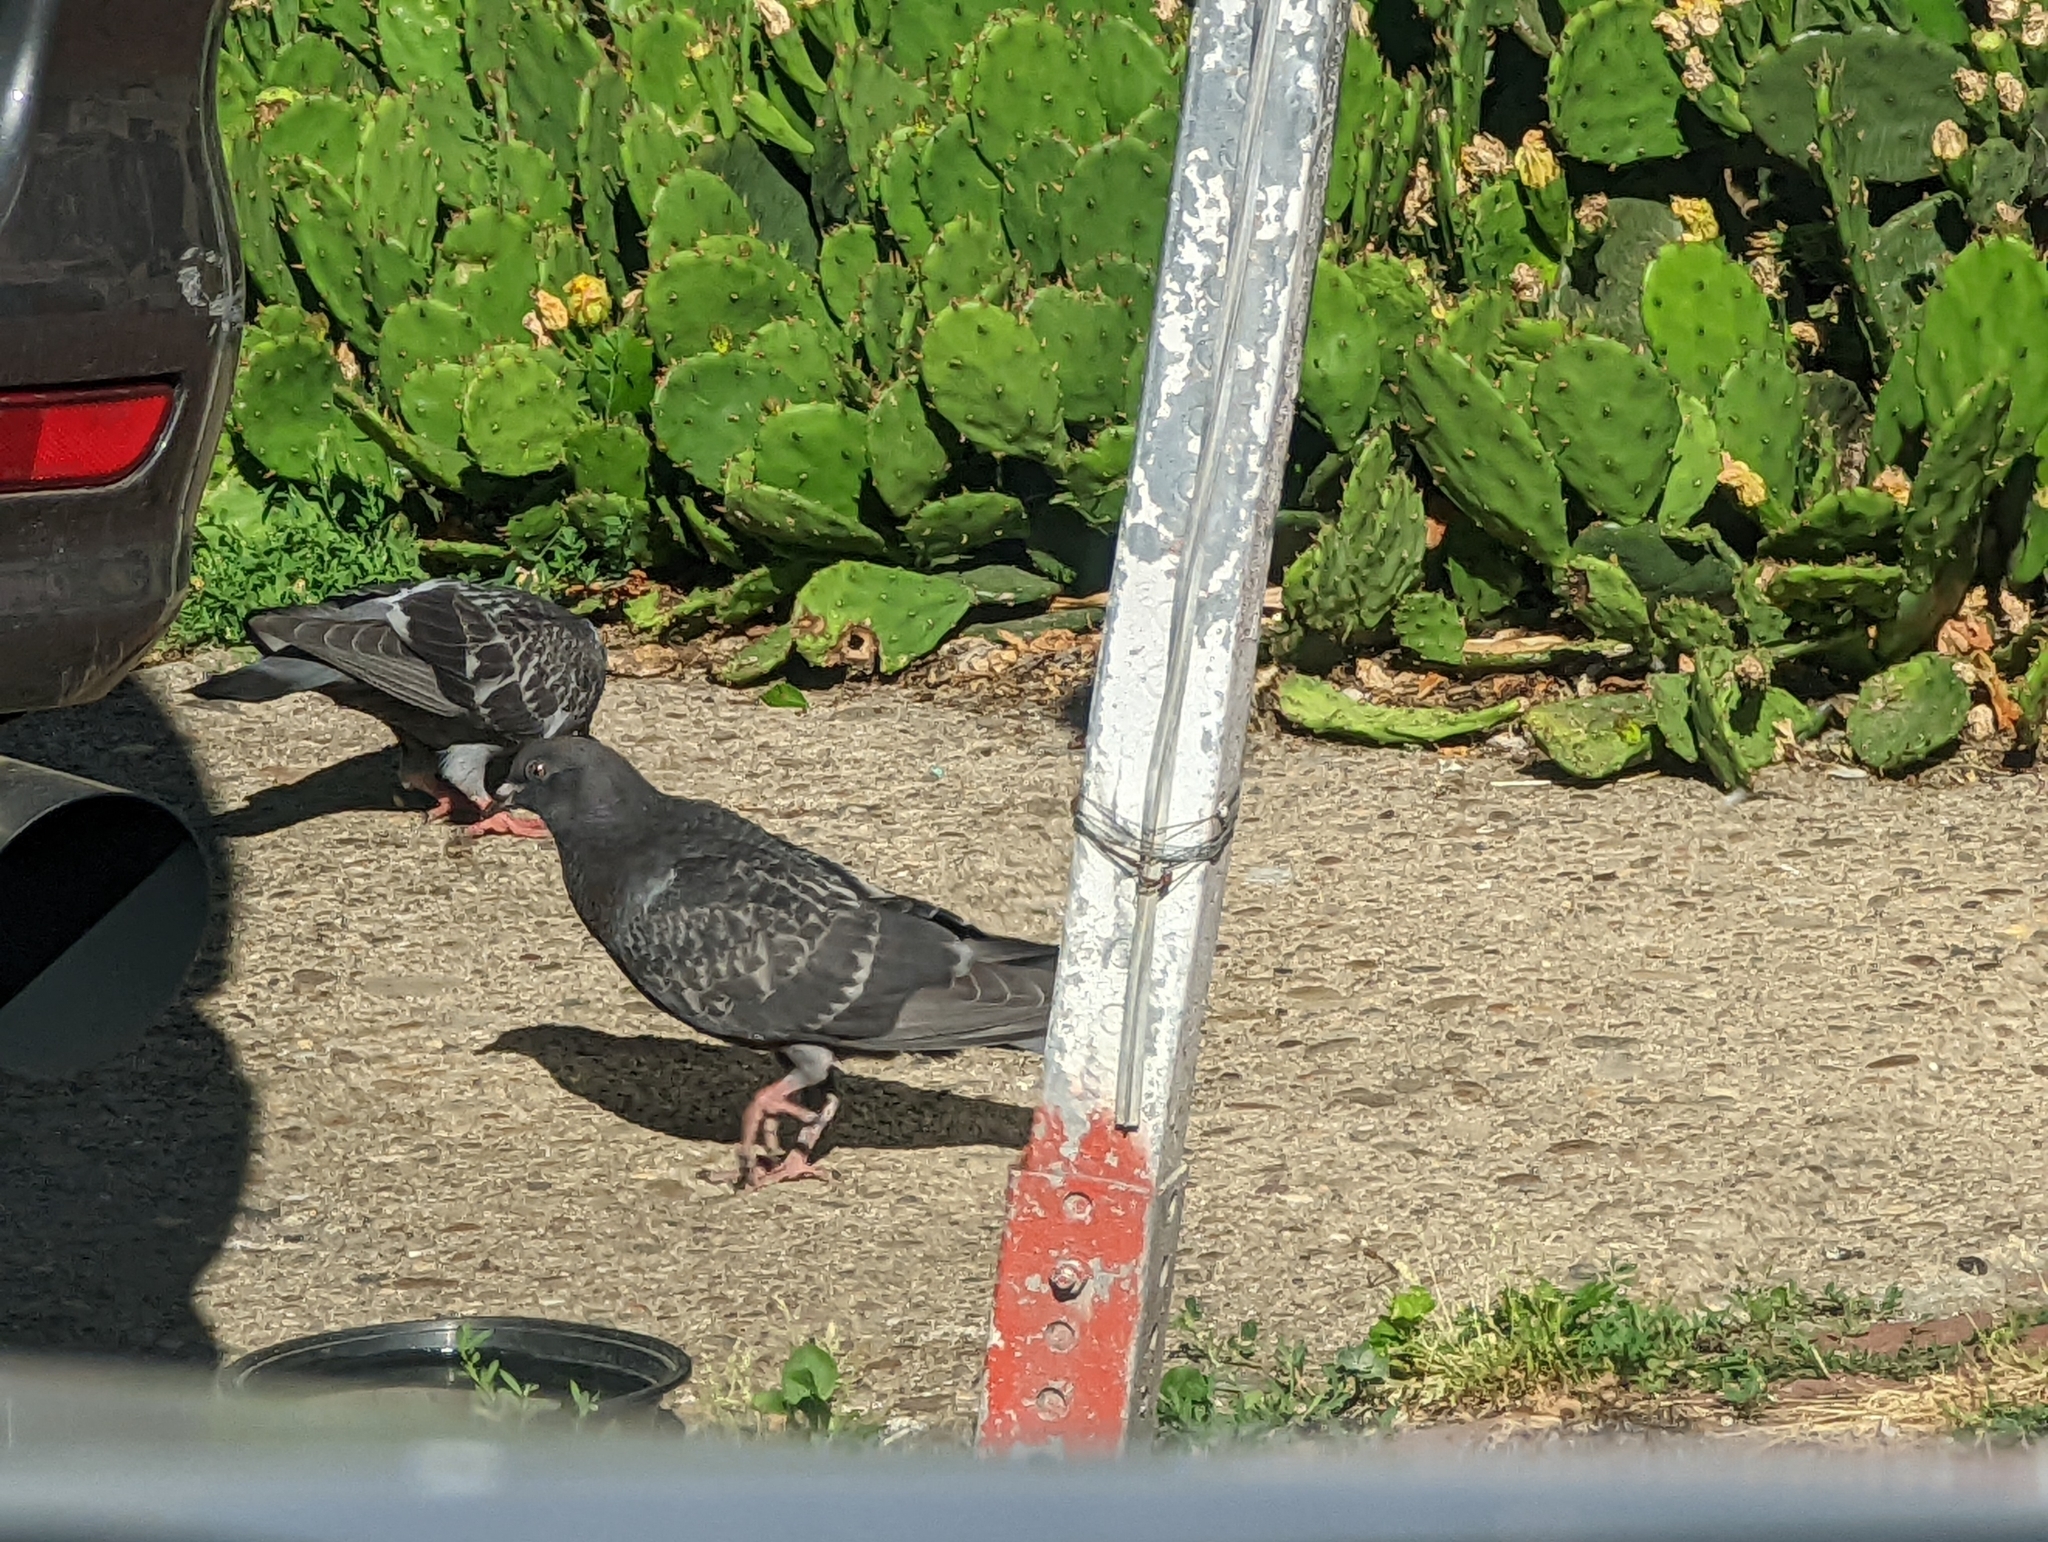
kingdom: Animalia
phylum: Chordata
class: Aves
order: Columbiformes
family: Columbidae
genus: Columba
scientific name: Columba livia
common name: Rock pigeon
